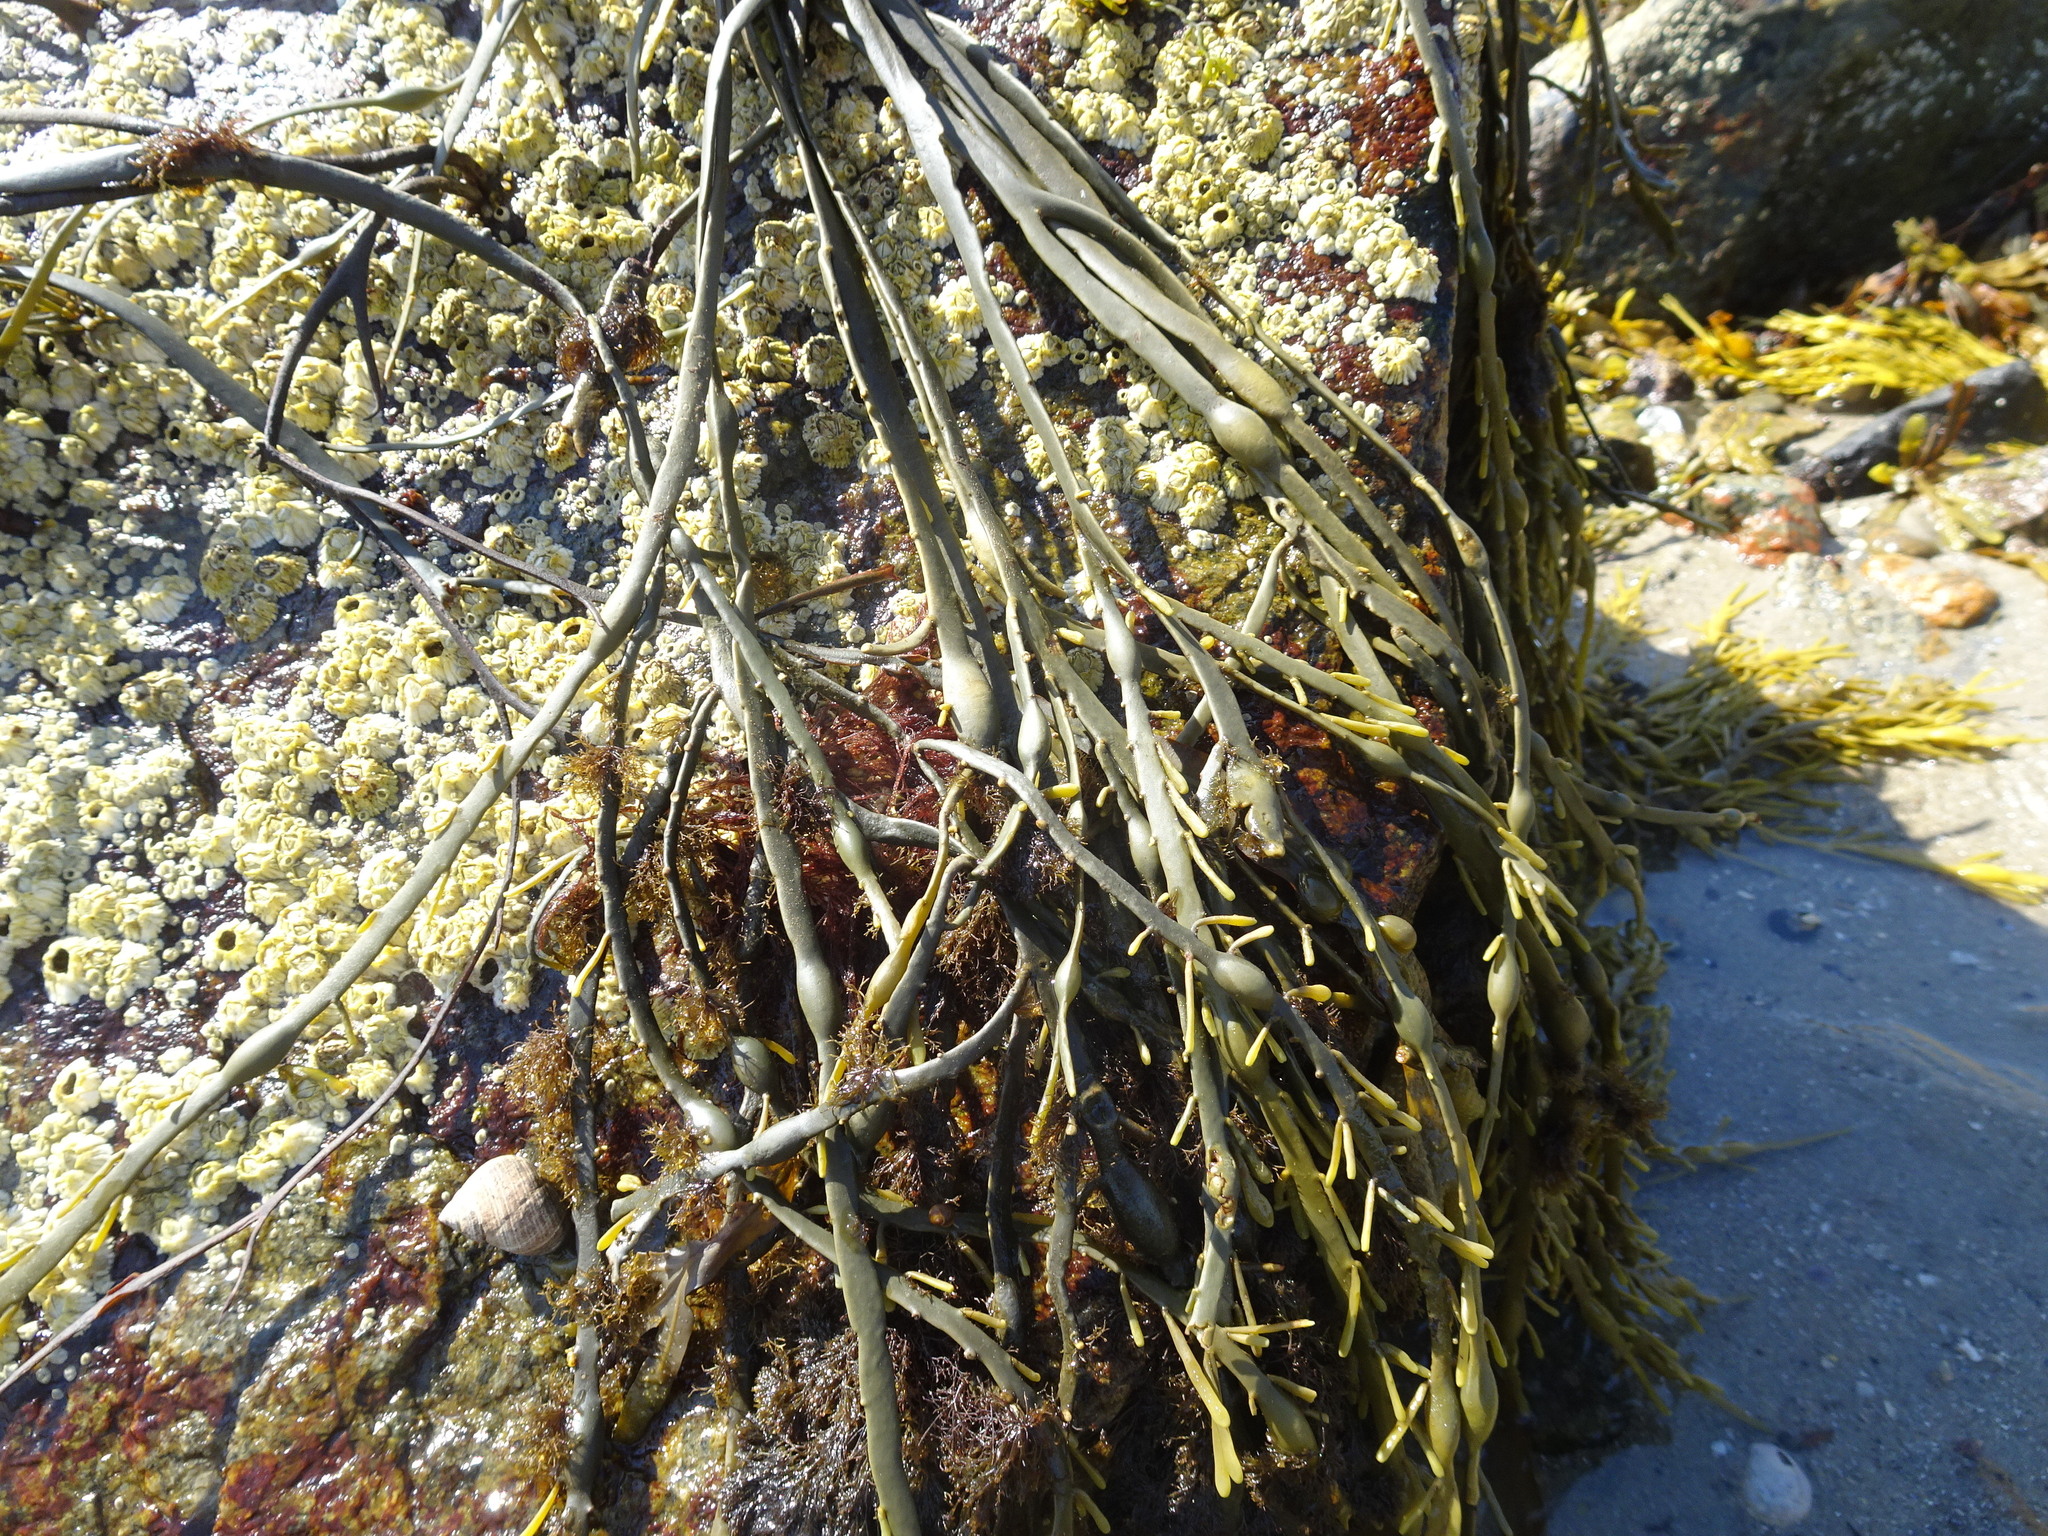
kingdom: Chromista
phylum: Ochrophyta
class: Phaeophyceae
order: Fucales
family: Fucaceae
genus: Ascophyllum
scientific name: Ascophyllum nodosum
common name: Knotted wrack
